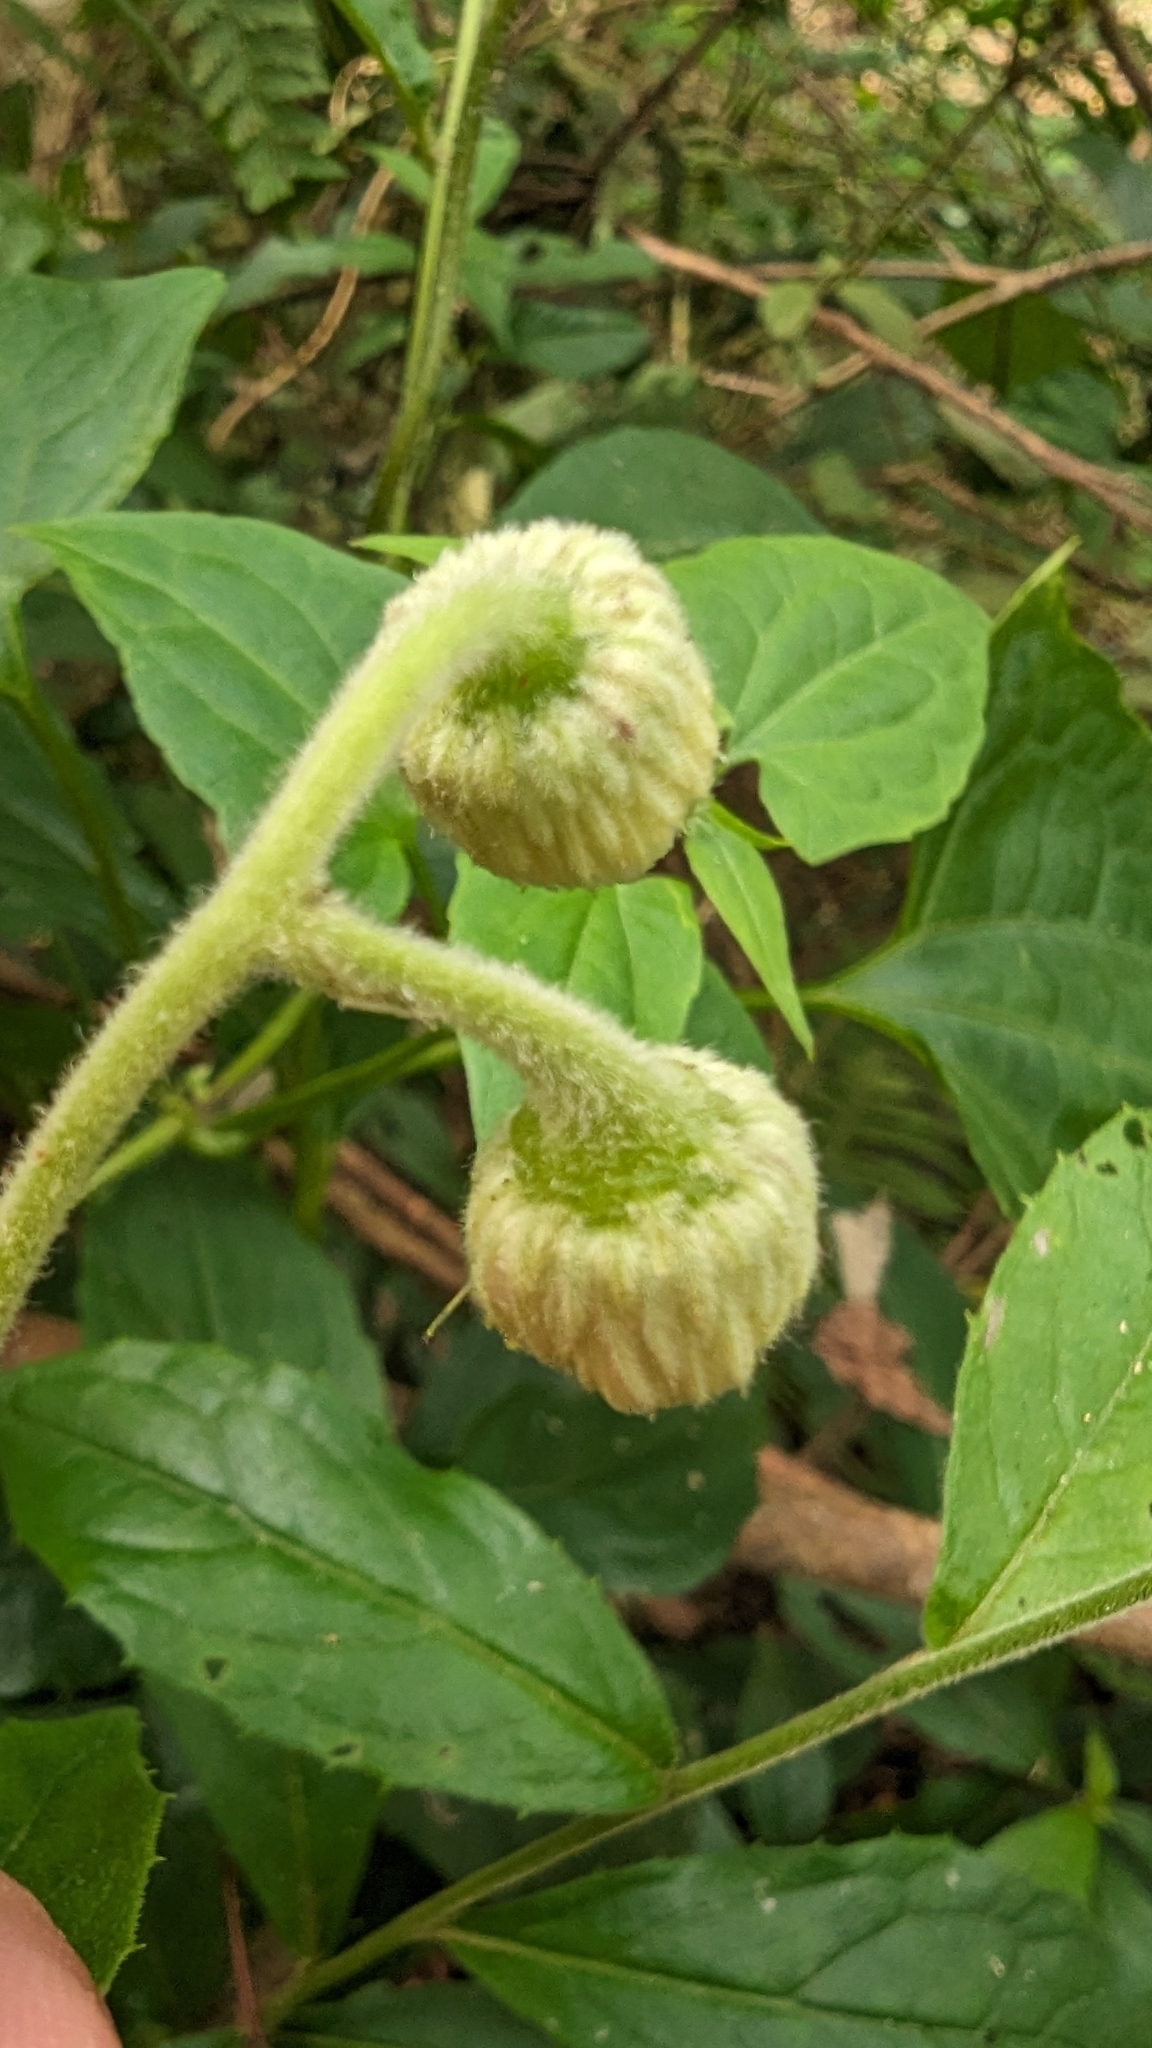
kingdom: Plantae
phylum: Tracheophyta
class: Magnoliopsida
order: Asterales
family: Asteraceae
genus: Blumea
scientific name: Blumea megacephala
